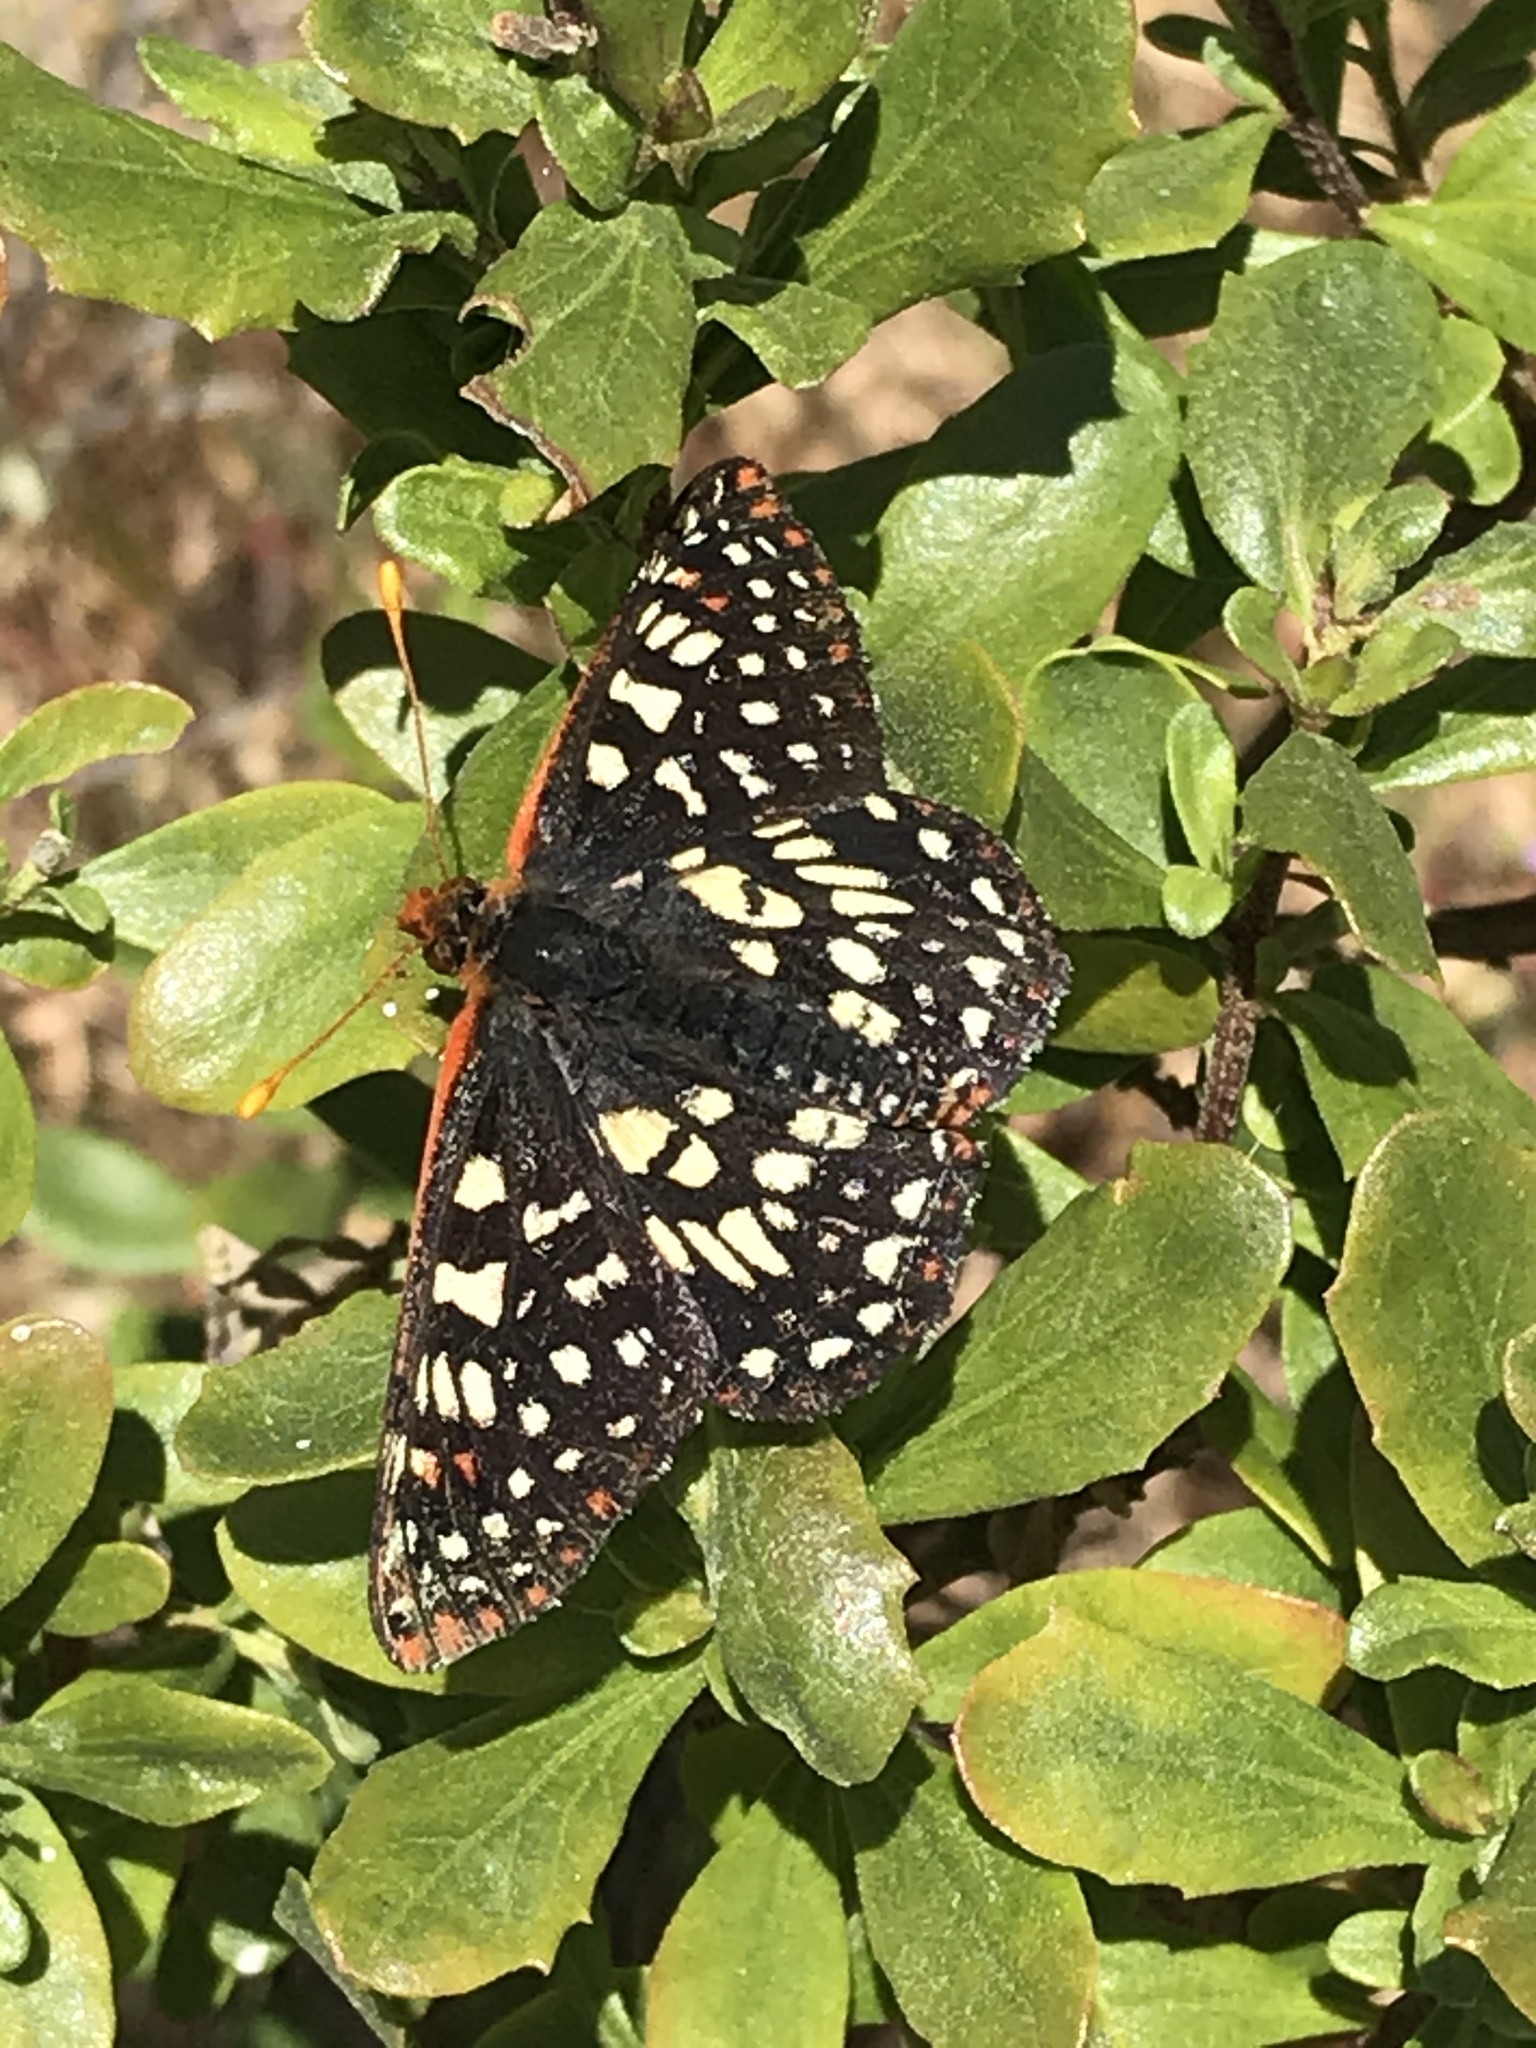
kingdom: Animalia
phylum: Arthropoda
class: Insecta
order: Lepidoptera
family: Nymphalidae
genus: Occidryas
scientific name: Occidryas chalcedona
